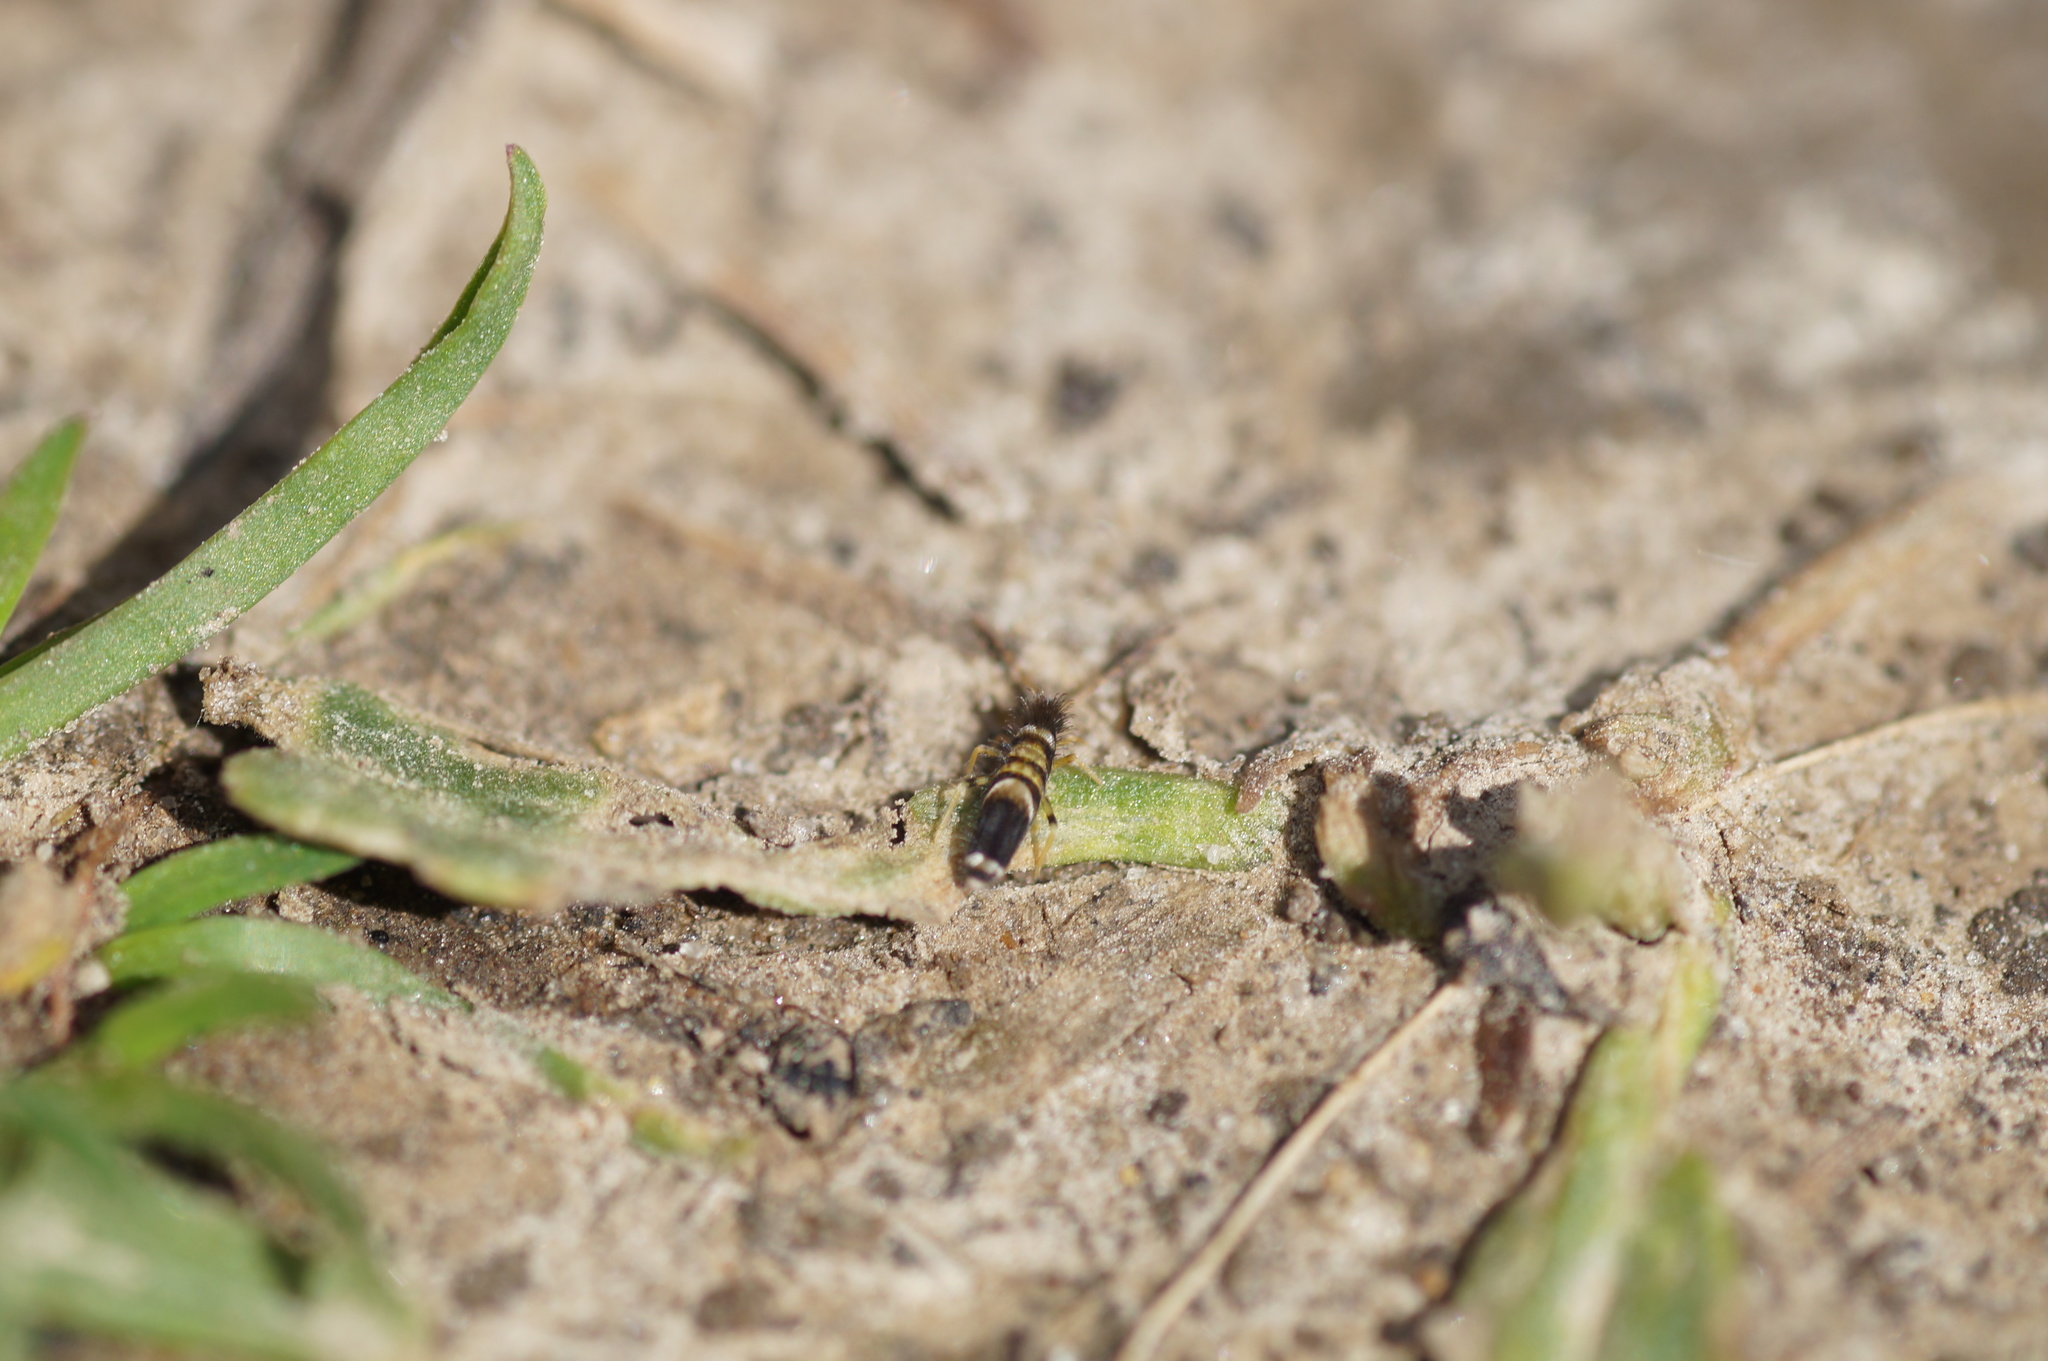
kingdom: Animalia
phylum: Arthropoda
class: Collembola
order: Entomobryomorpha
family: Entomobryidae
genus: Entomobrya
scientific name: Entomobrya superba
